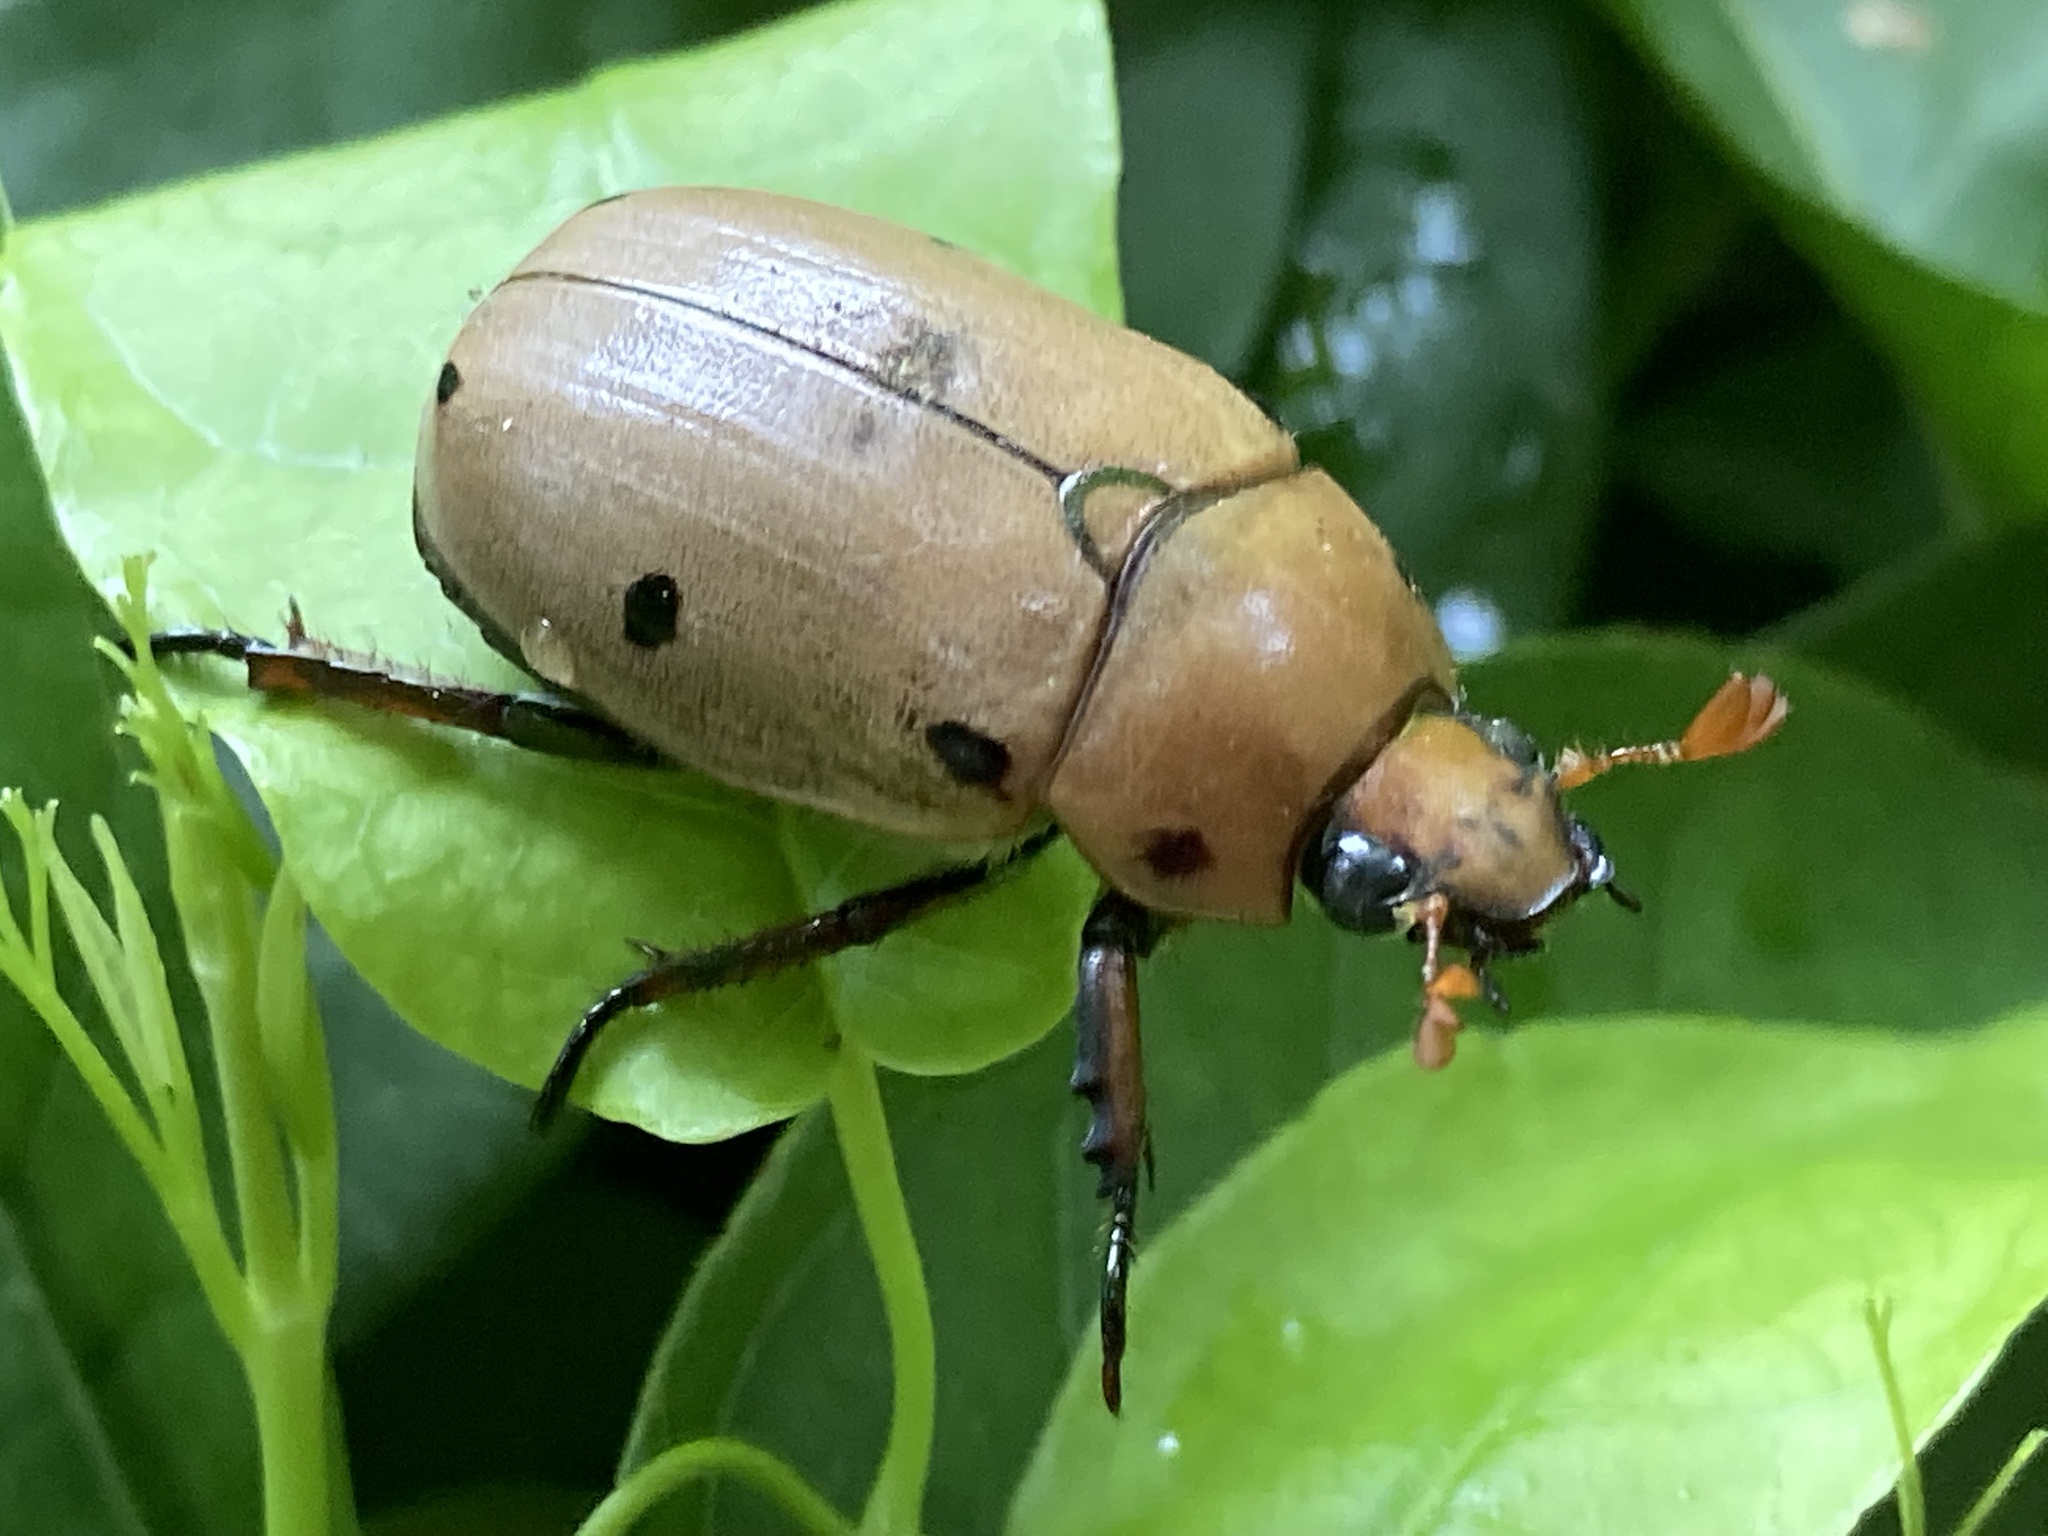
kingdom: Animalia
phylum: Arthropoda
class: Insecta
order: Coleoptera
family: Scarabaeidae
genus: Pelidnota
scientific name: Pelidnota punctata
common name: Grapevine beetle
